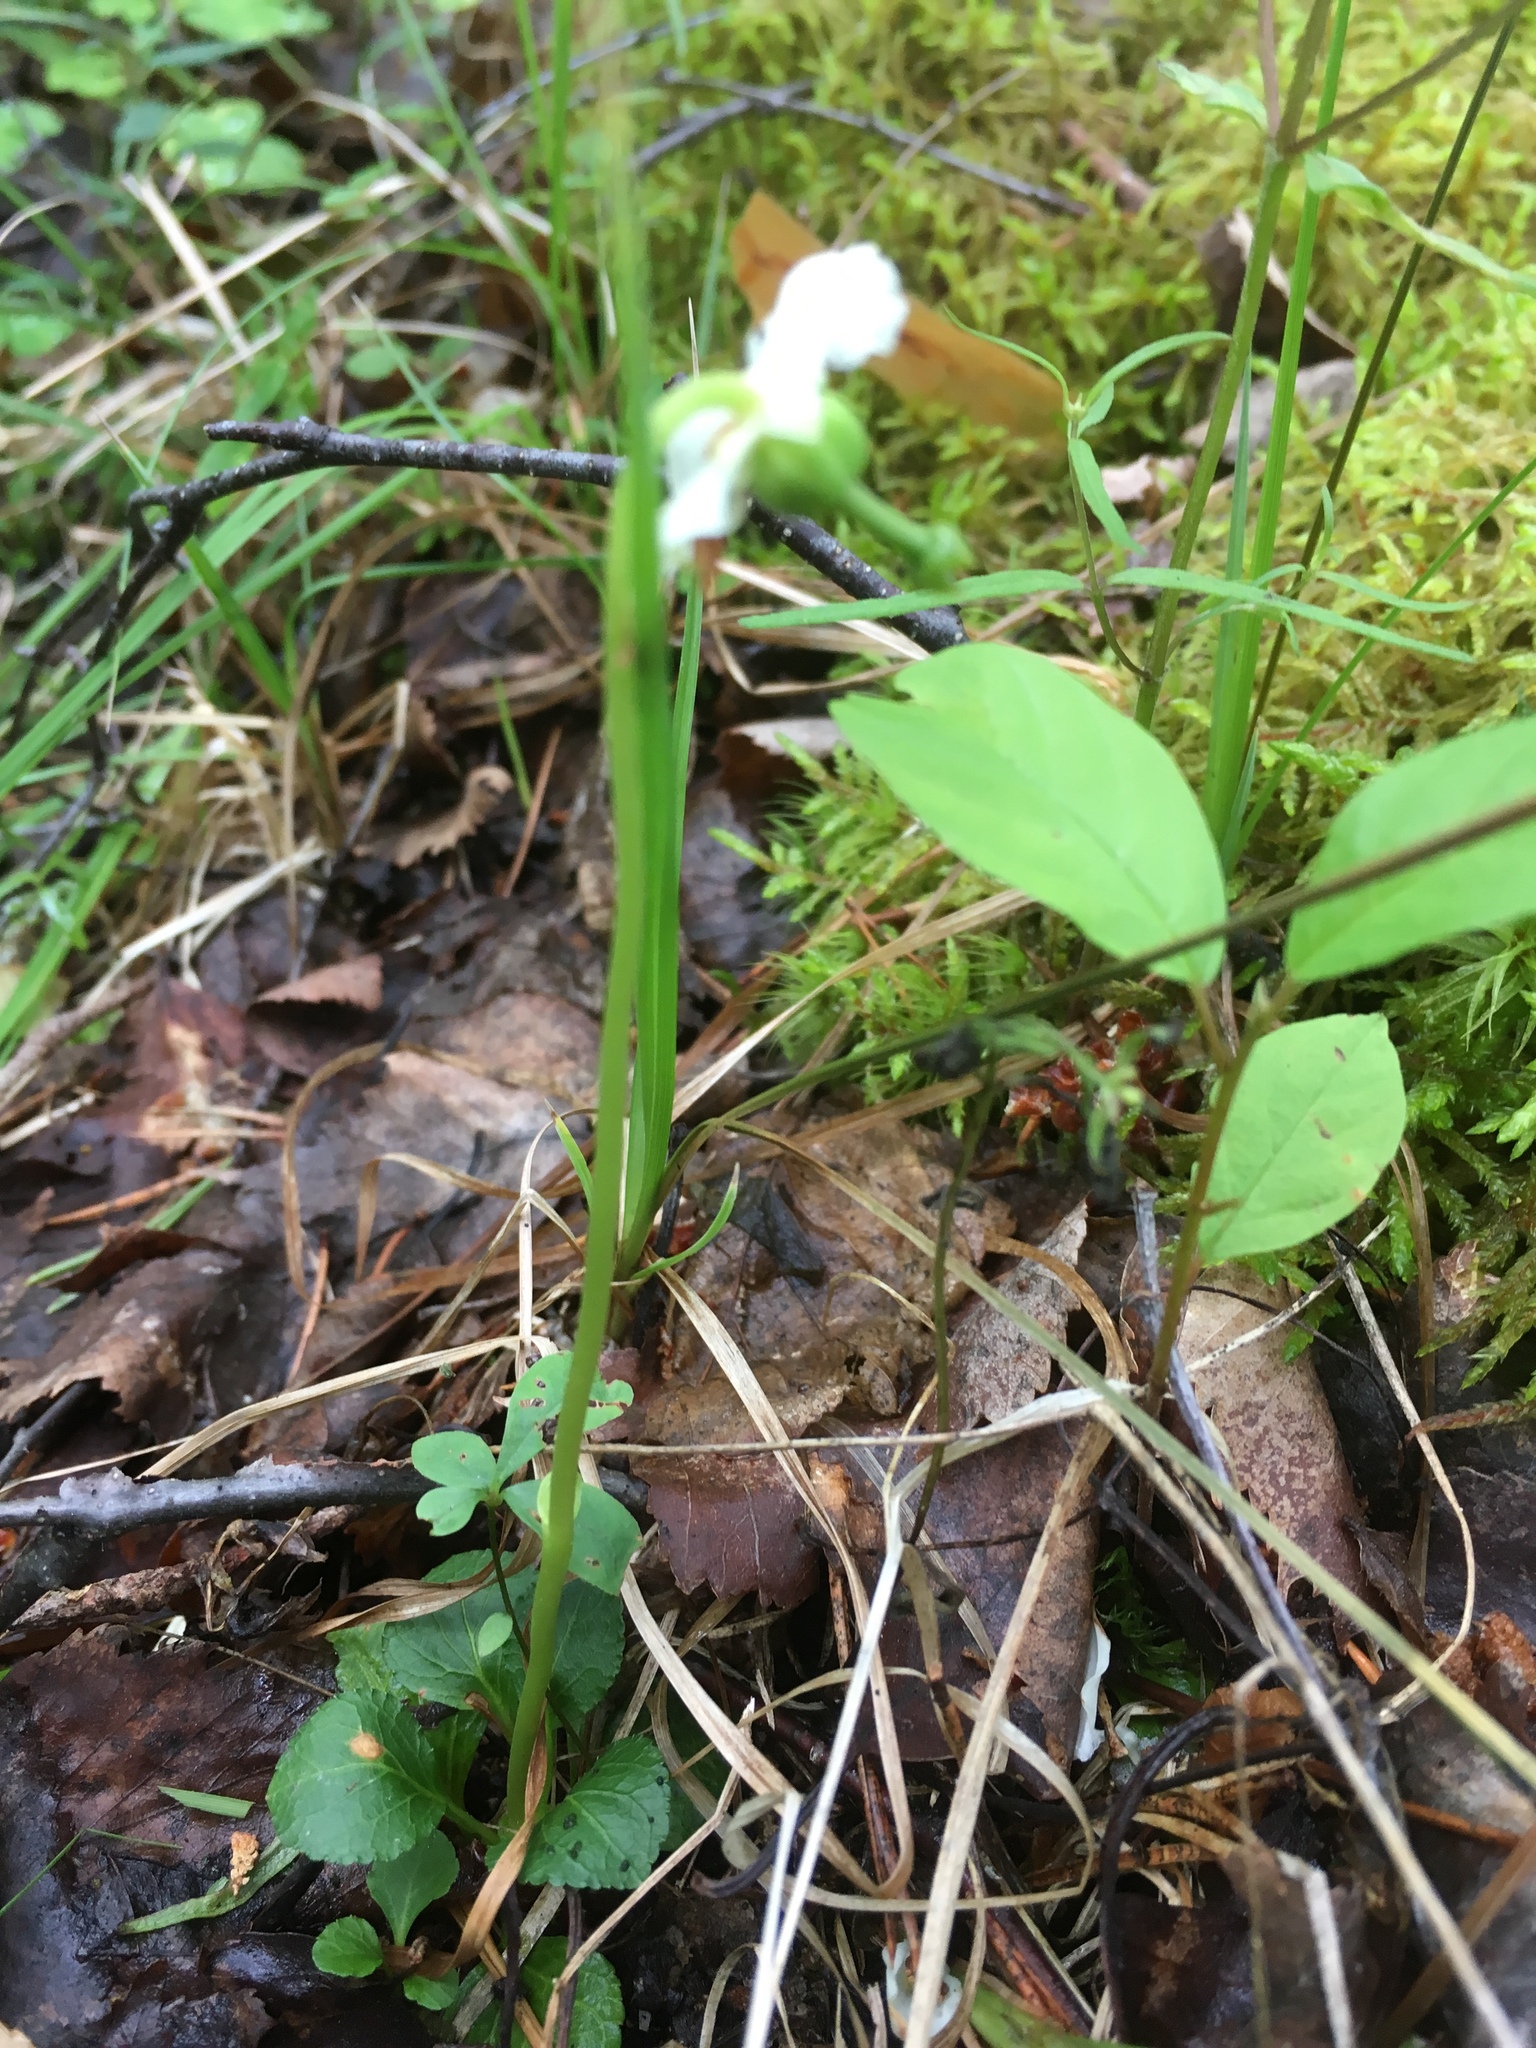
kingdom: Plantae
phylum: Tracheophyta
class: Magnoliopsida
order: Ericales
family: Ericaceae
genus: Moneses
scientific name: Moneses uniflora
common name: One-flowered wintergreen
